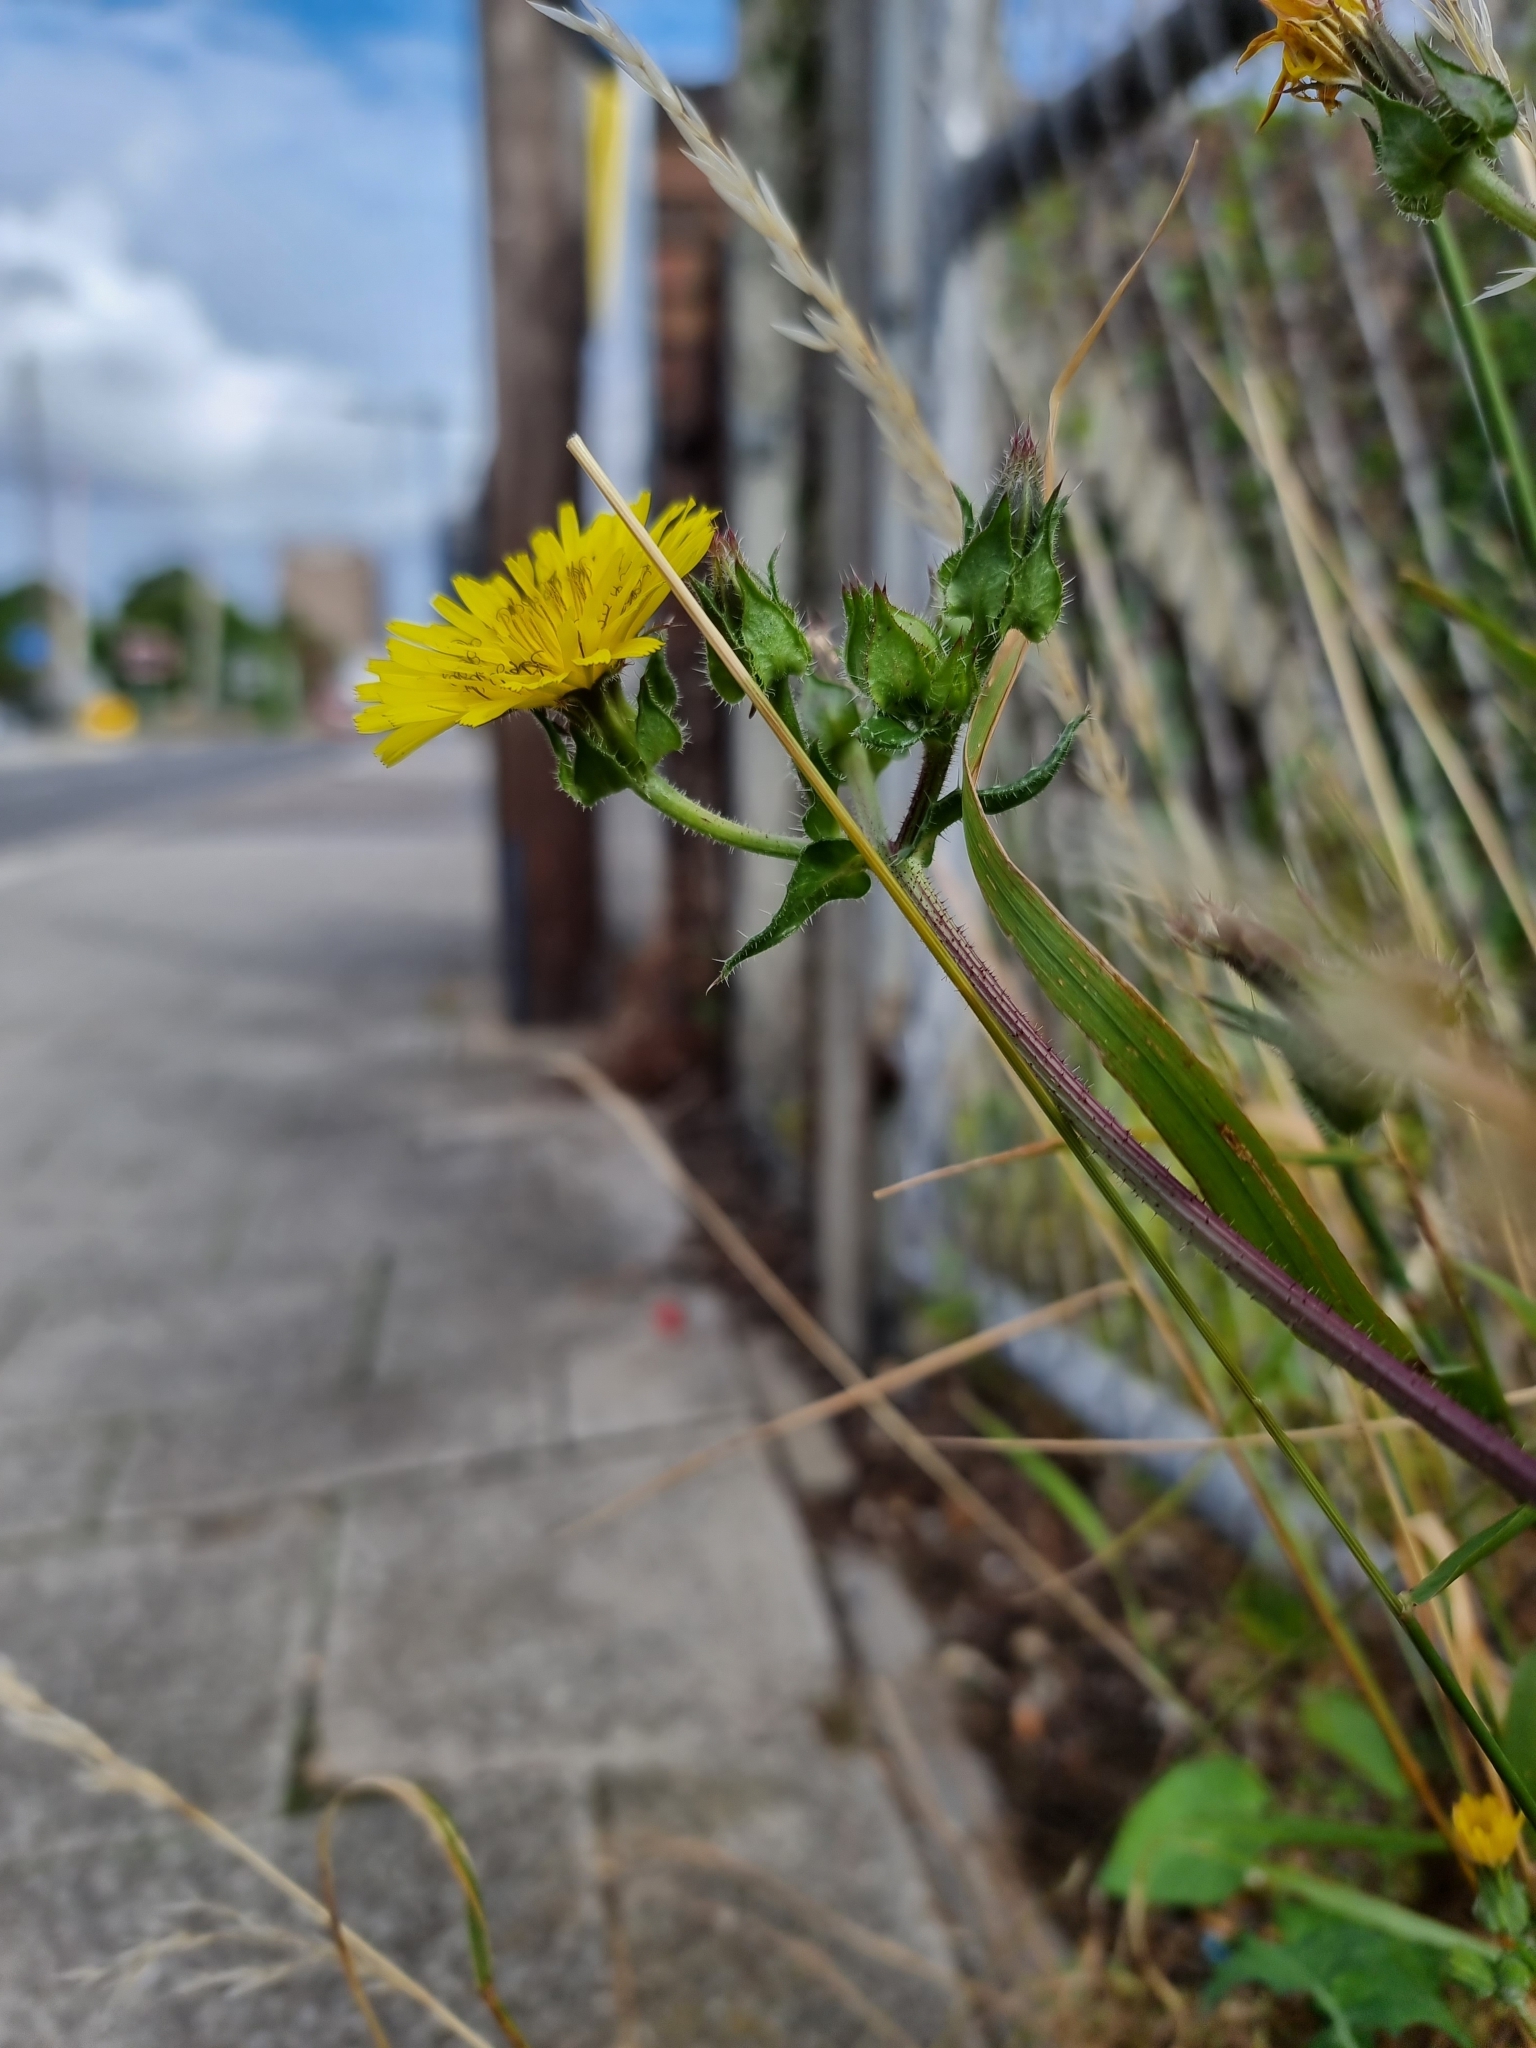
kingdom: Plantae
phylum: Tracheophyta
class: Magnoliopsida
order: Asterales
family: Asteraceae
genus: Helminthotheca
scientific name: Helminthotheca echioides
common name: Ox-tongue
